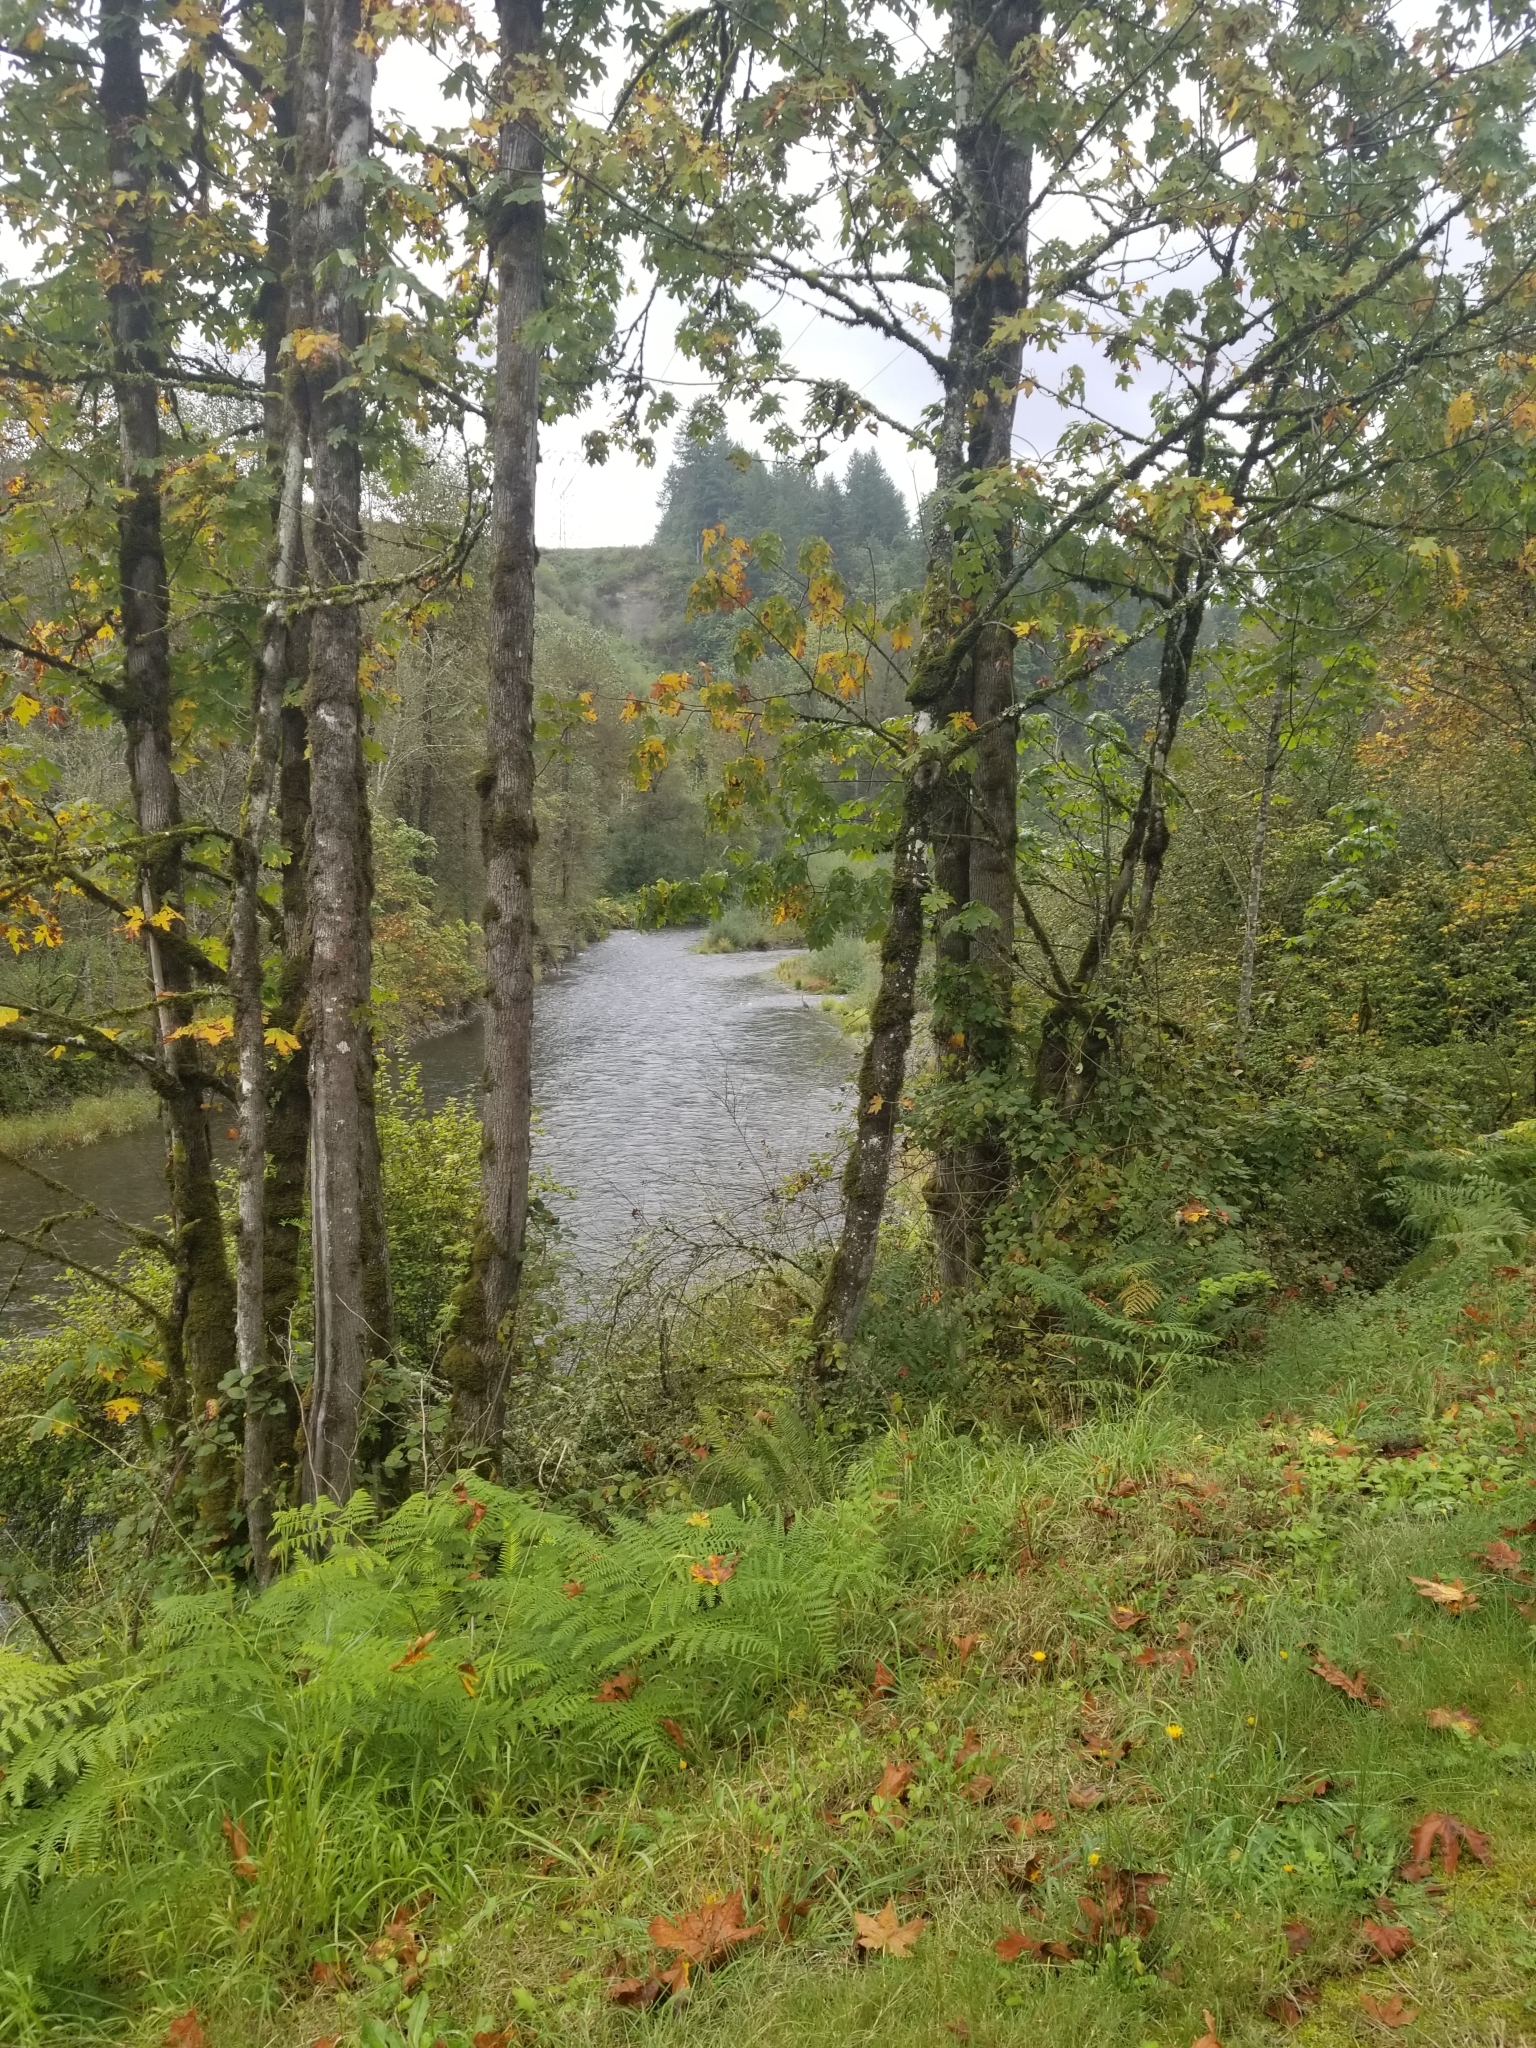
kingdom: Animalia
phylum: Chordata
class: Aves
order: Pelecaniformes
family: Ardeidae
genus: Ardea
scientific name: Ardea herodias
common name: Great blue heron
